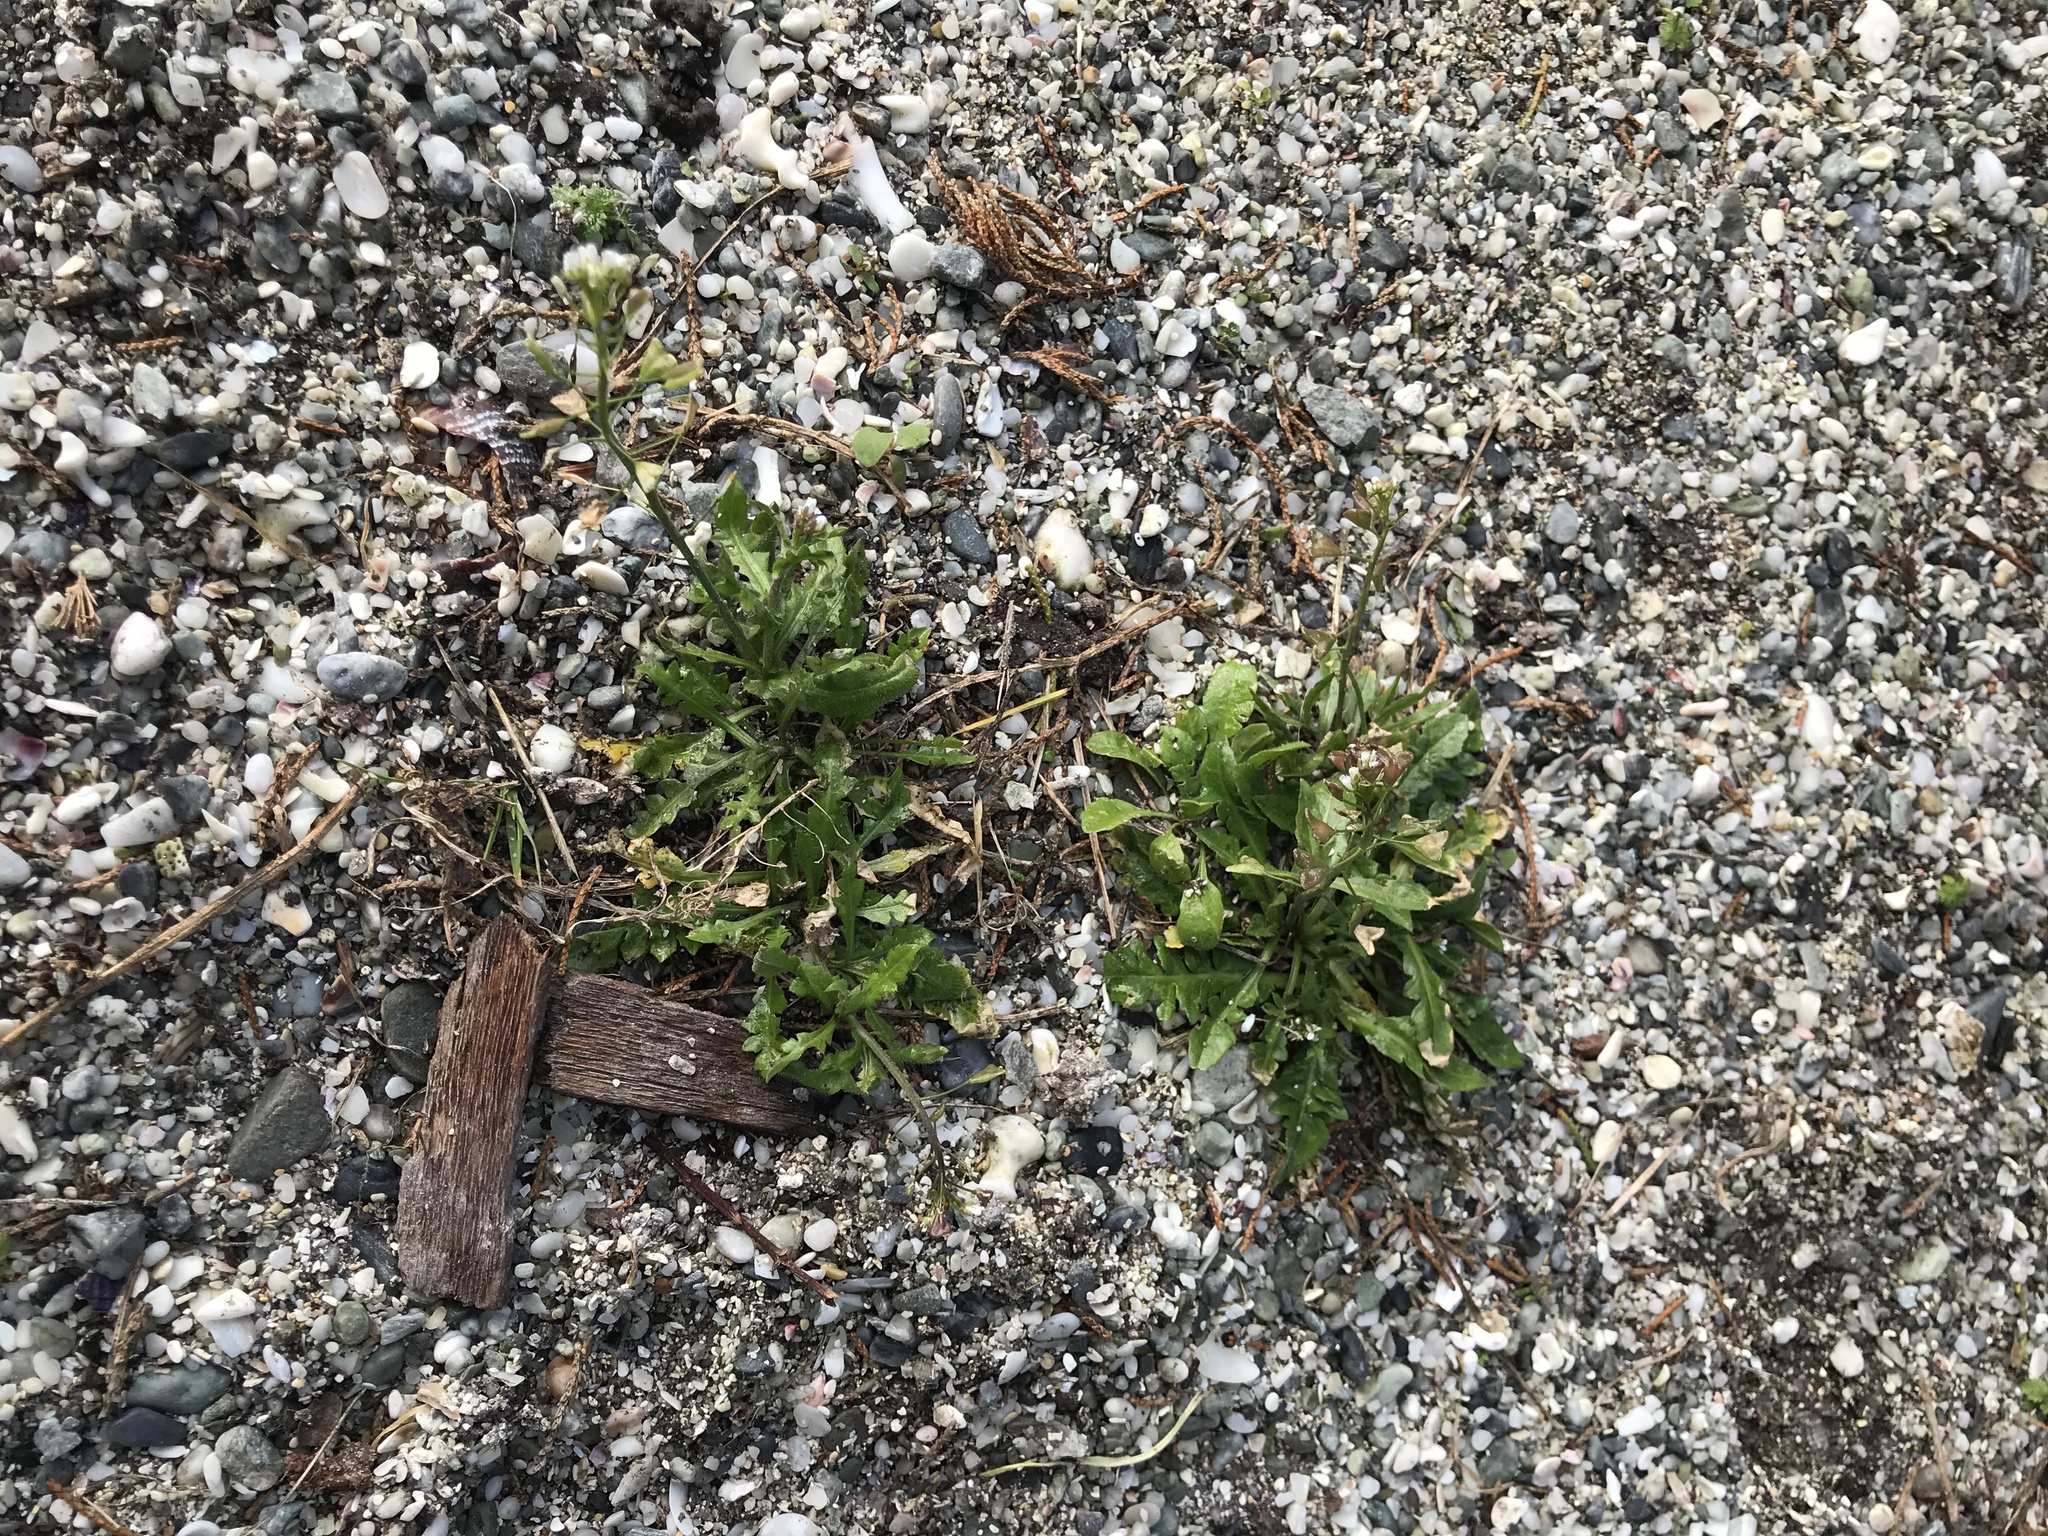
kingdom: Plantae
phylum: Tracheophyta
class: Magnoliopsida
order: Brassicales
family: Brassicaceae
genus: Capsella
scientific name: Capsella bursa-pastoris
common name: Shepherd's purse
